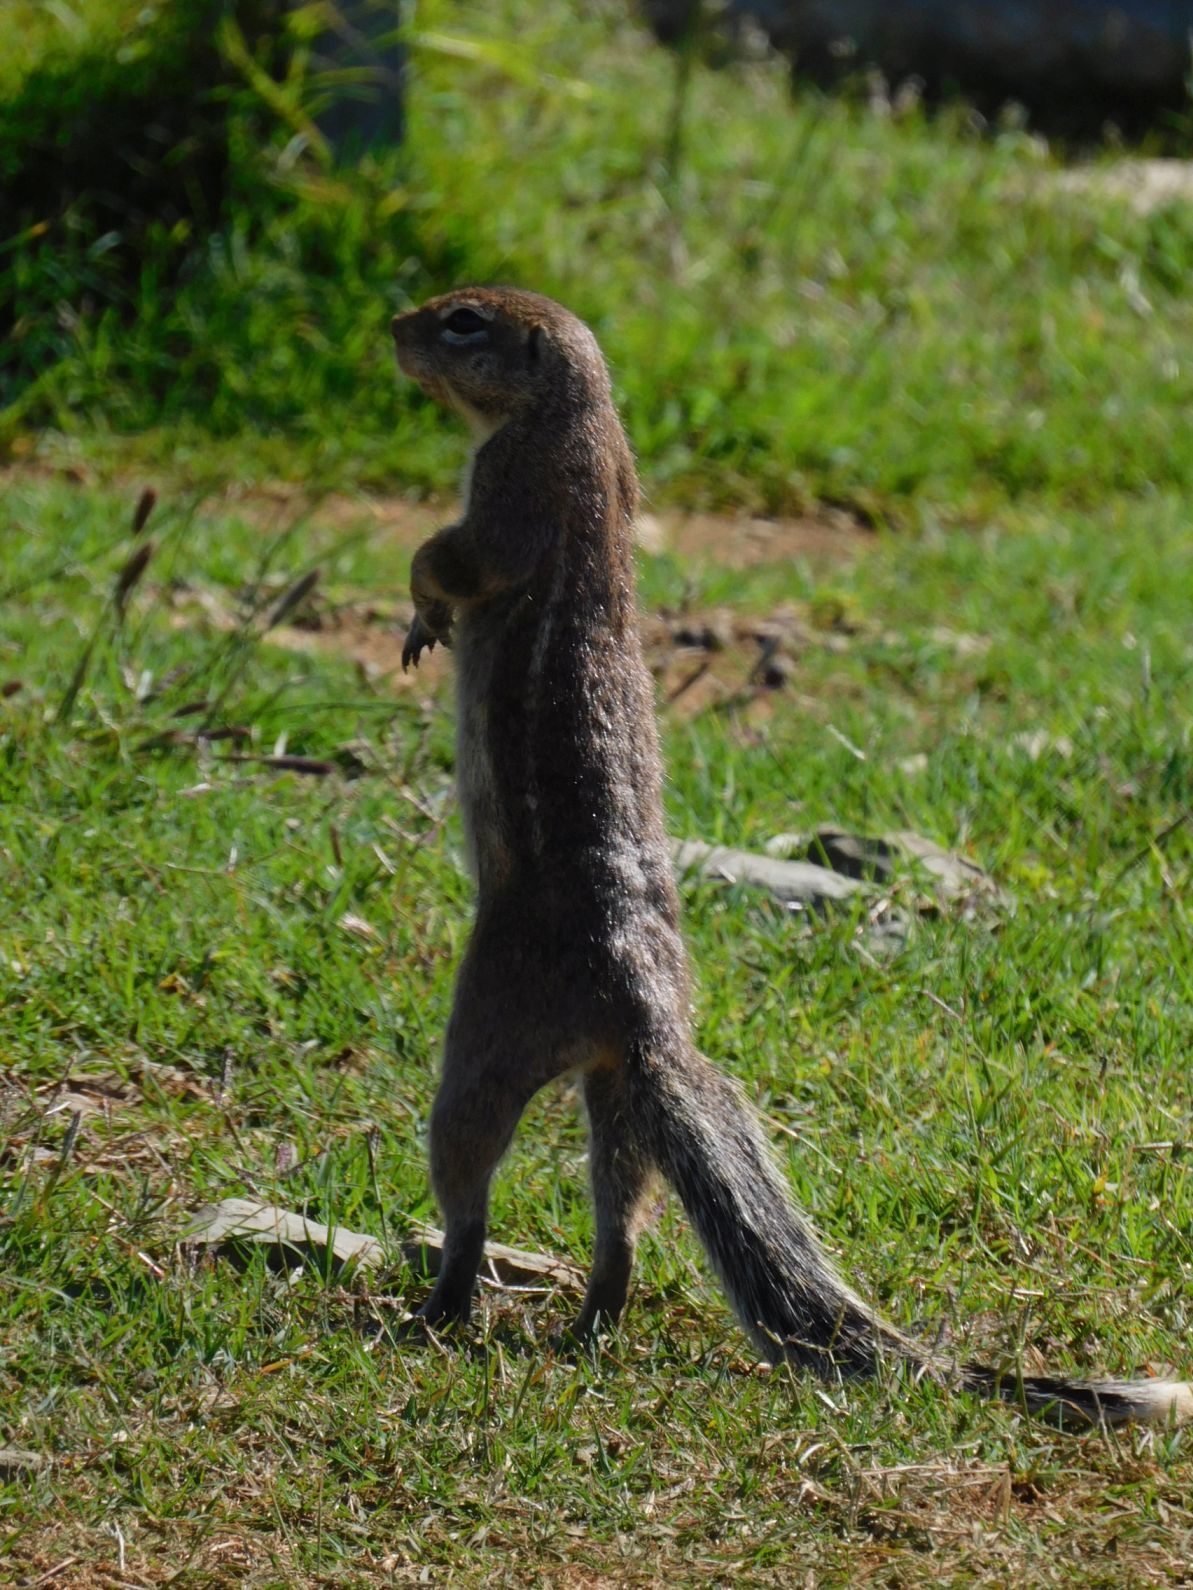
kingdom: Animalia
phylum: Chordata
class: Mammalia
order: Rodentia
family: Sciuridae
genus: Xerus
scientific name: Xerus inauris
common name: South african ground squirrel
